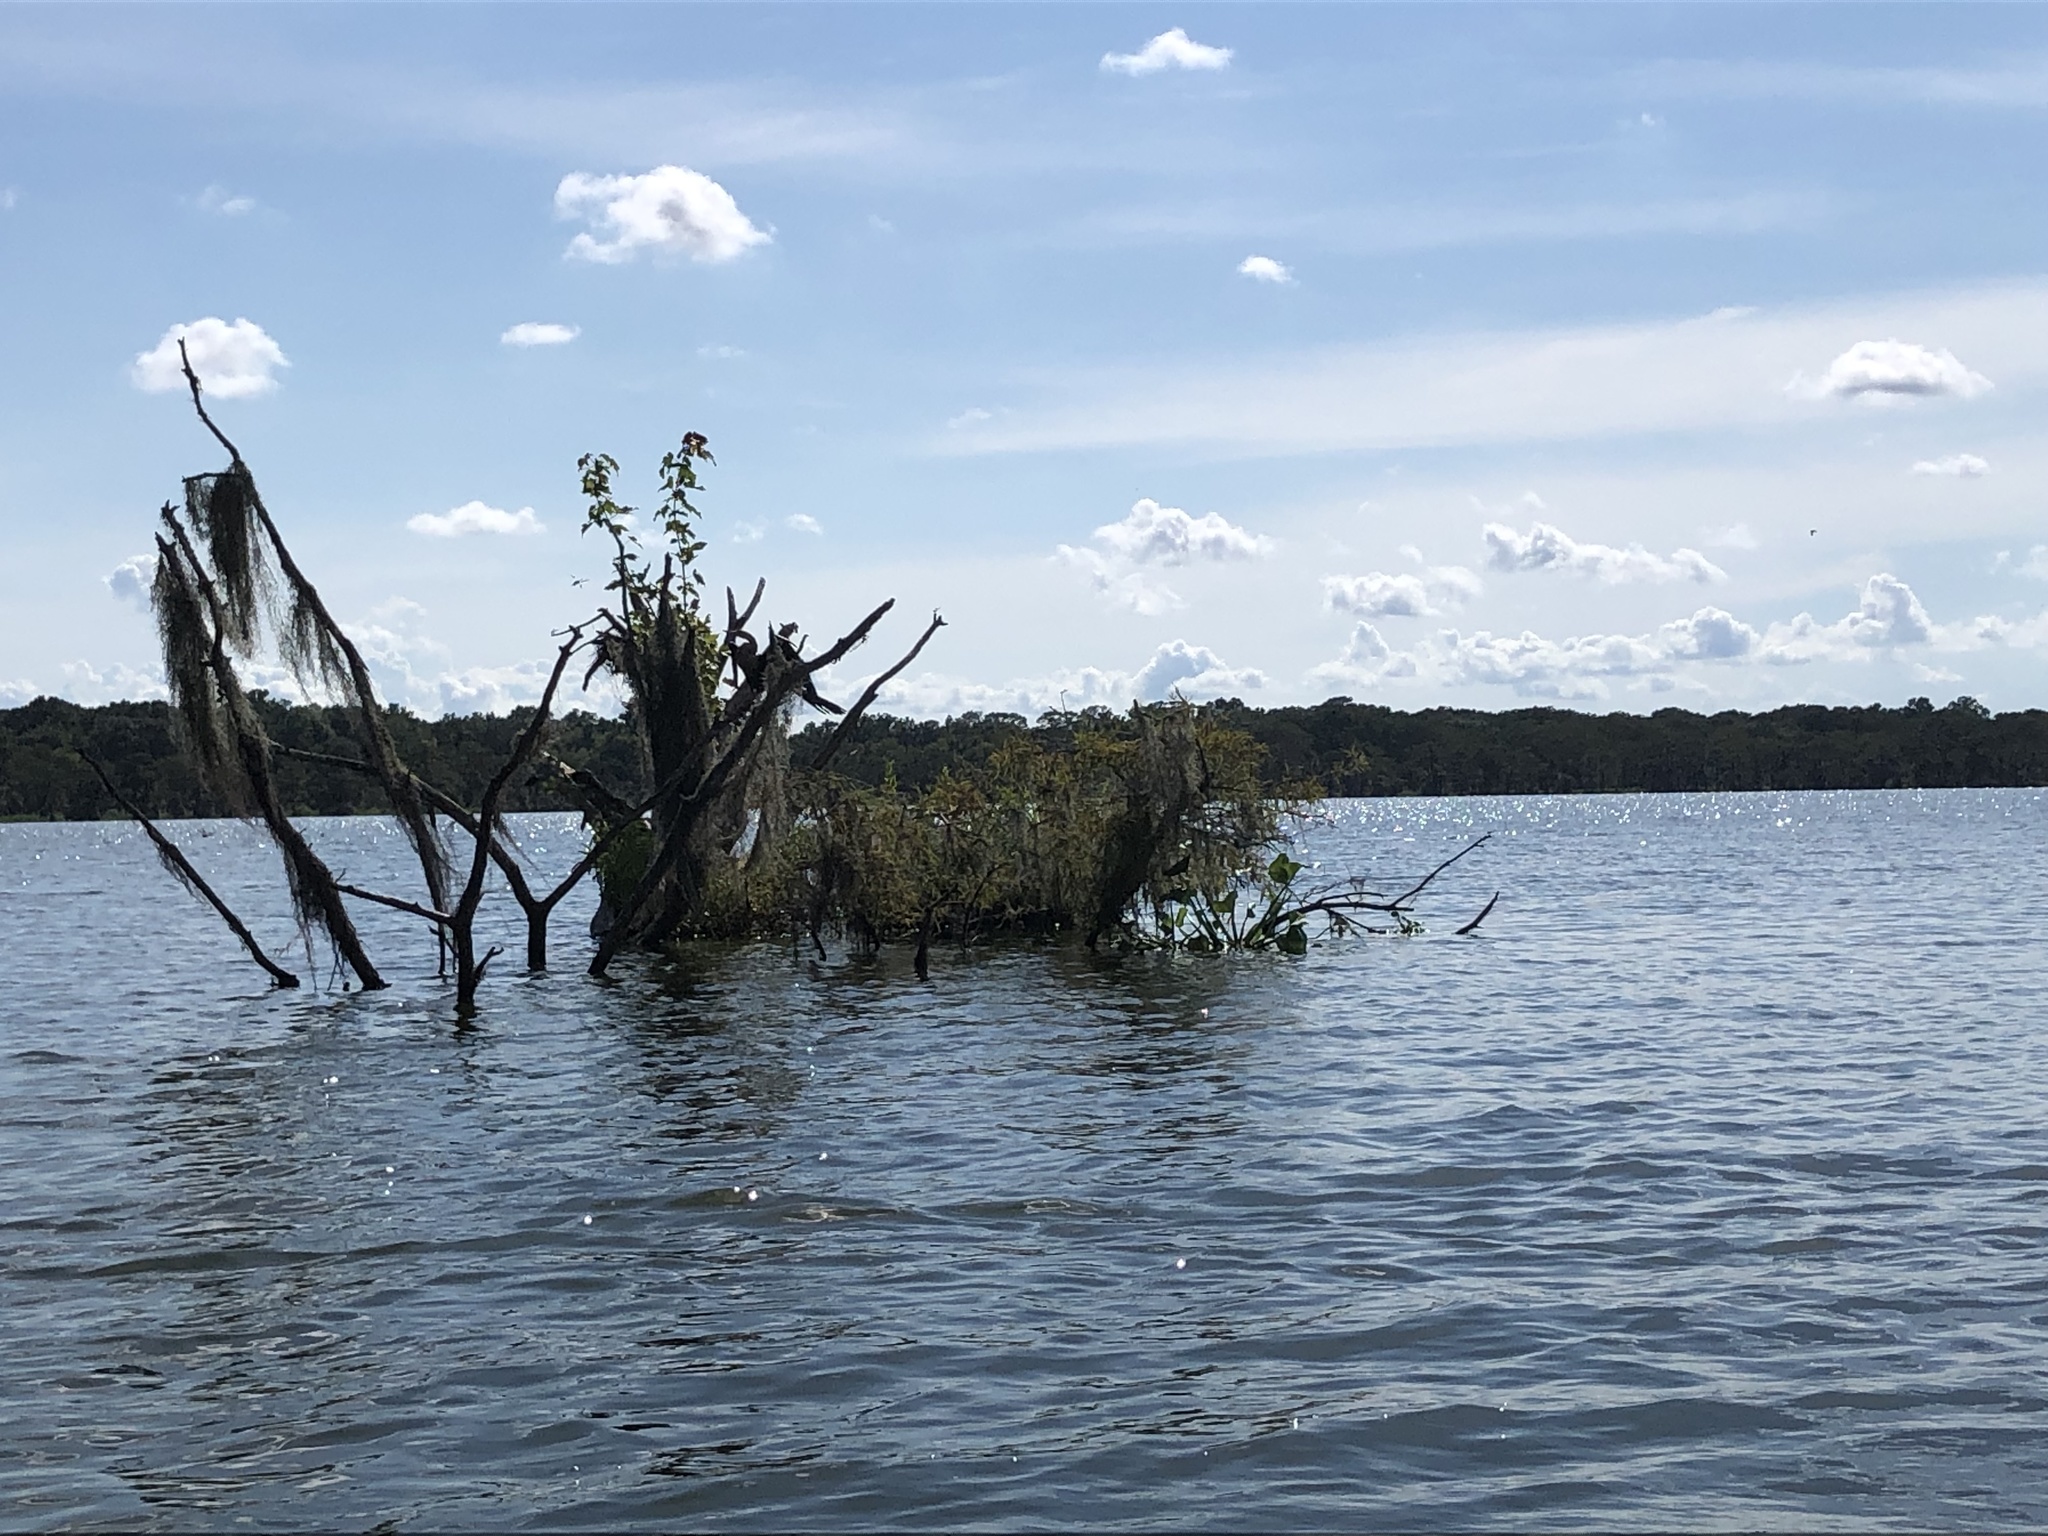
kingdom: Animalia
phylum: Chordata
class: Aves
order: Suliformes
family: Anhingidae
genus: Anhinga
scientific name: Anhinga anhinga
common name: Anhinga
